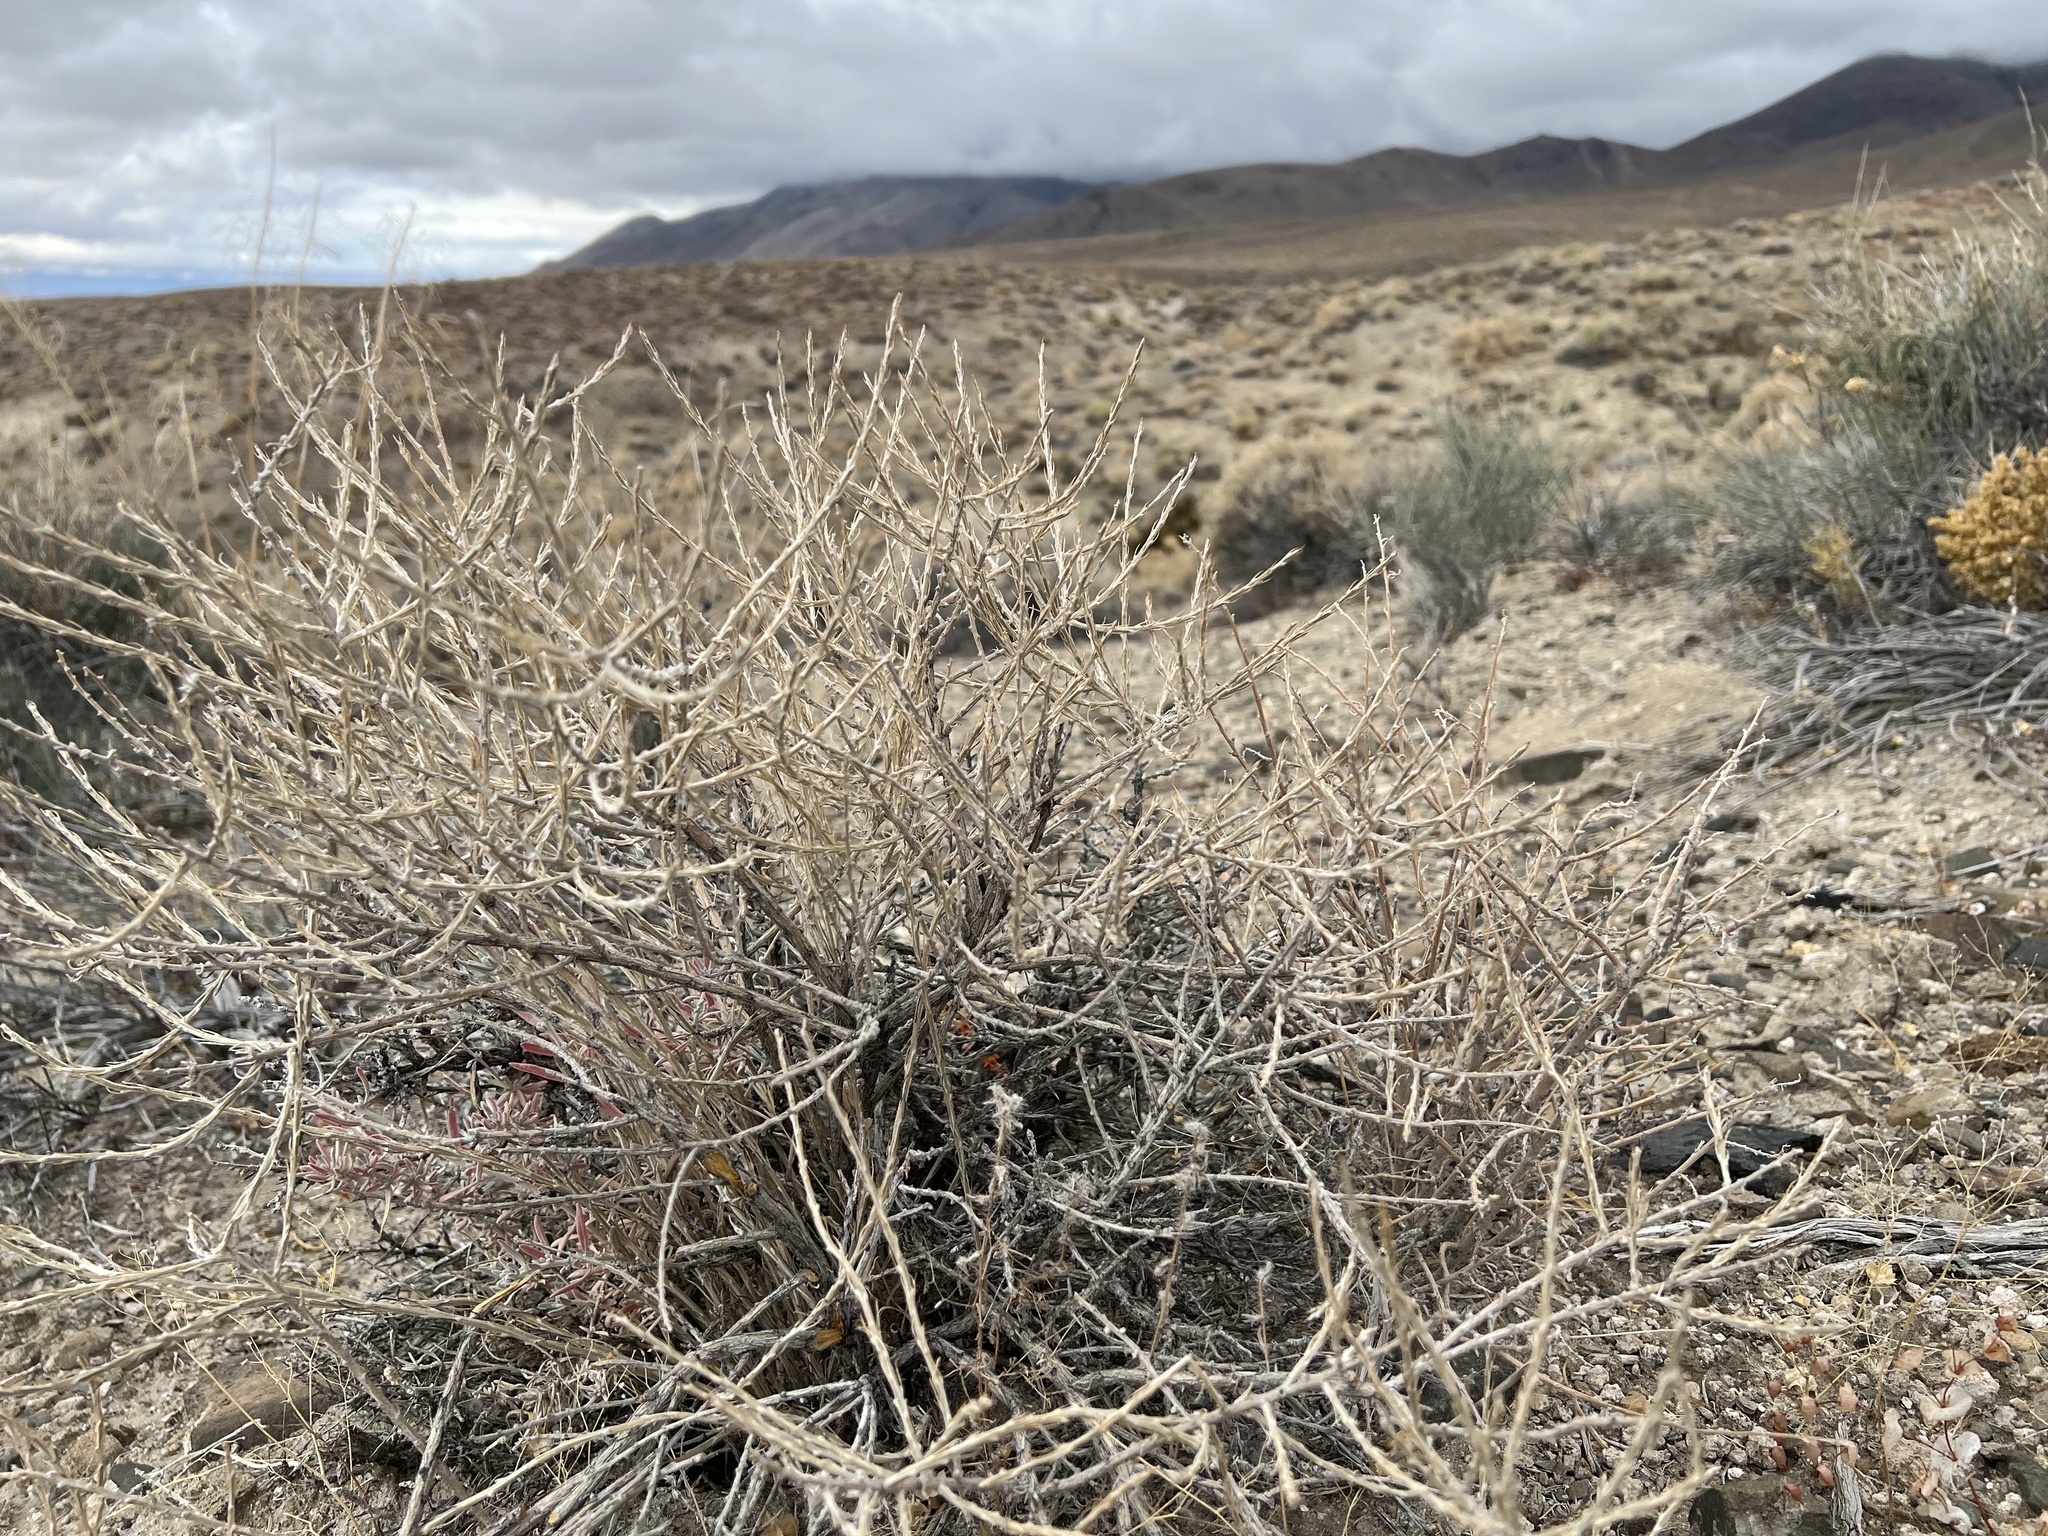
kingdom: Plantae
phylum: Tracheophyta
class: Magnoliopsida
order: Asterales
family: Asteraceae
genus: Tetradymia
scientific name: Tetradymia glabrata
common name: Smooth tetradymia
